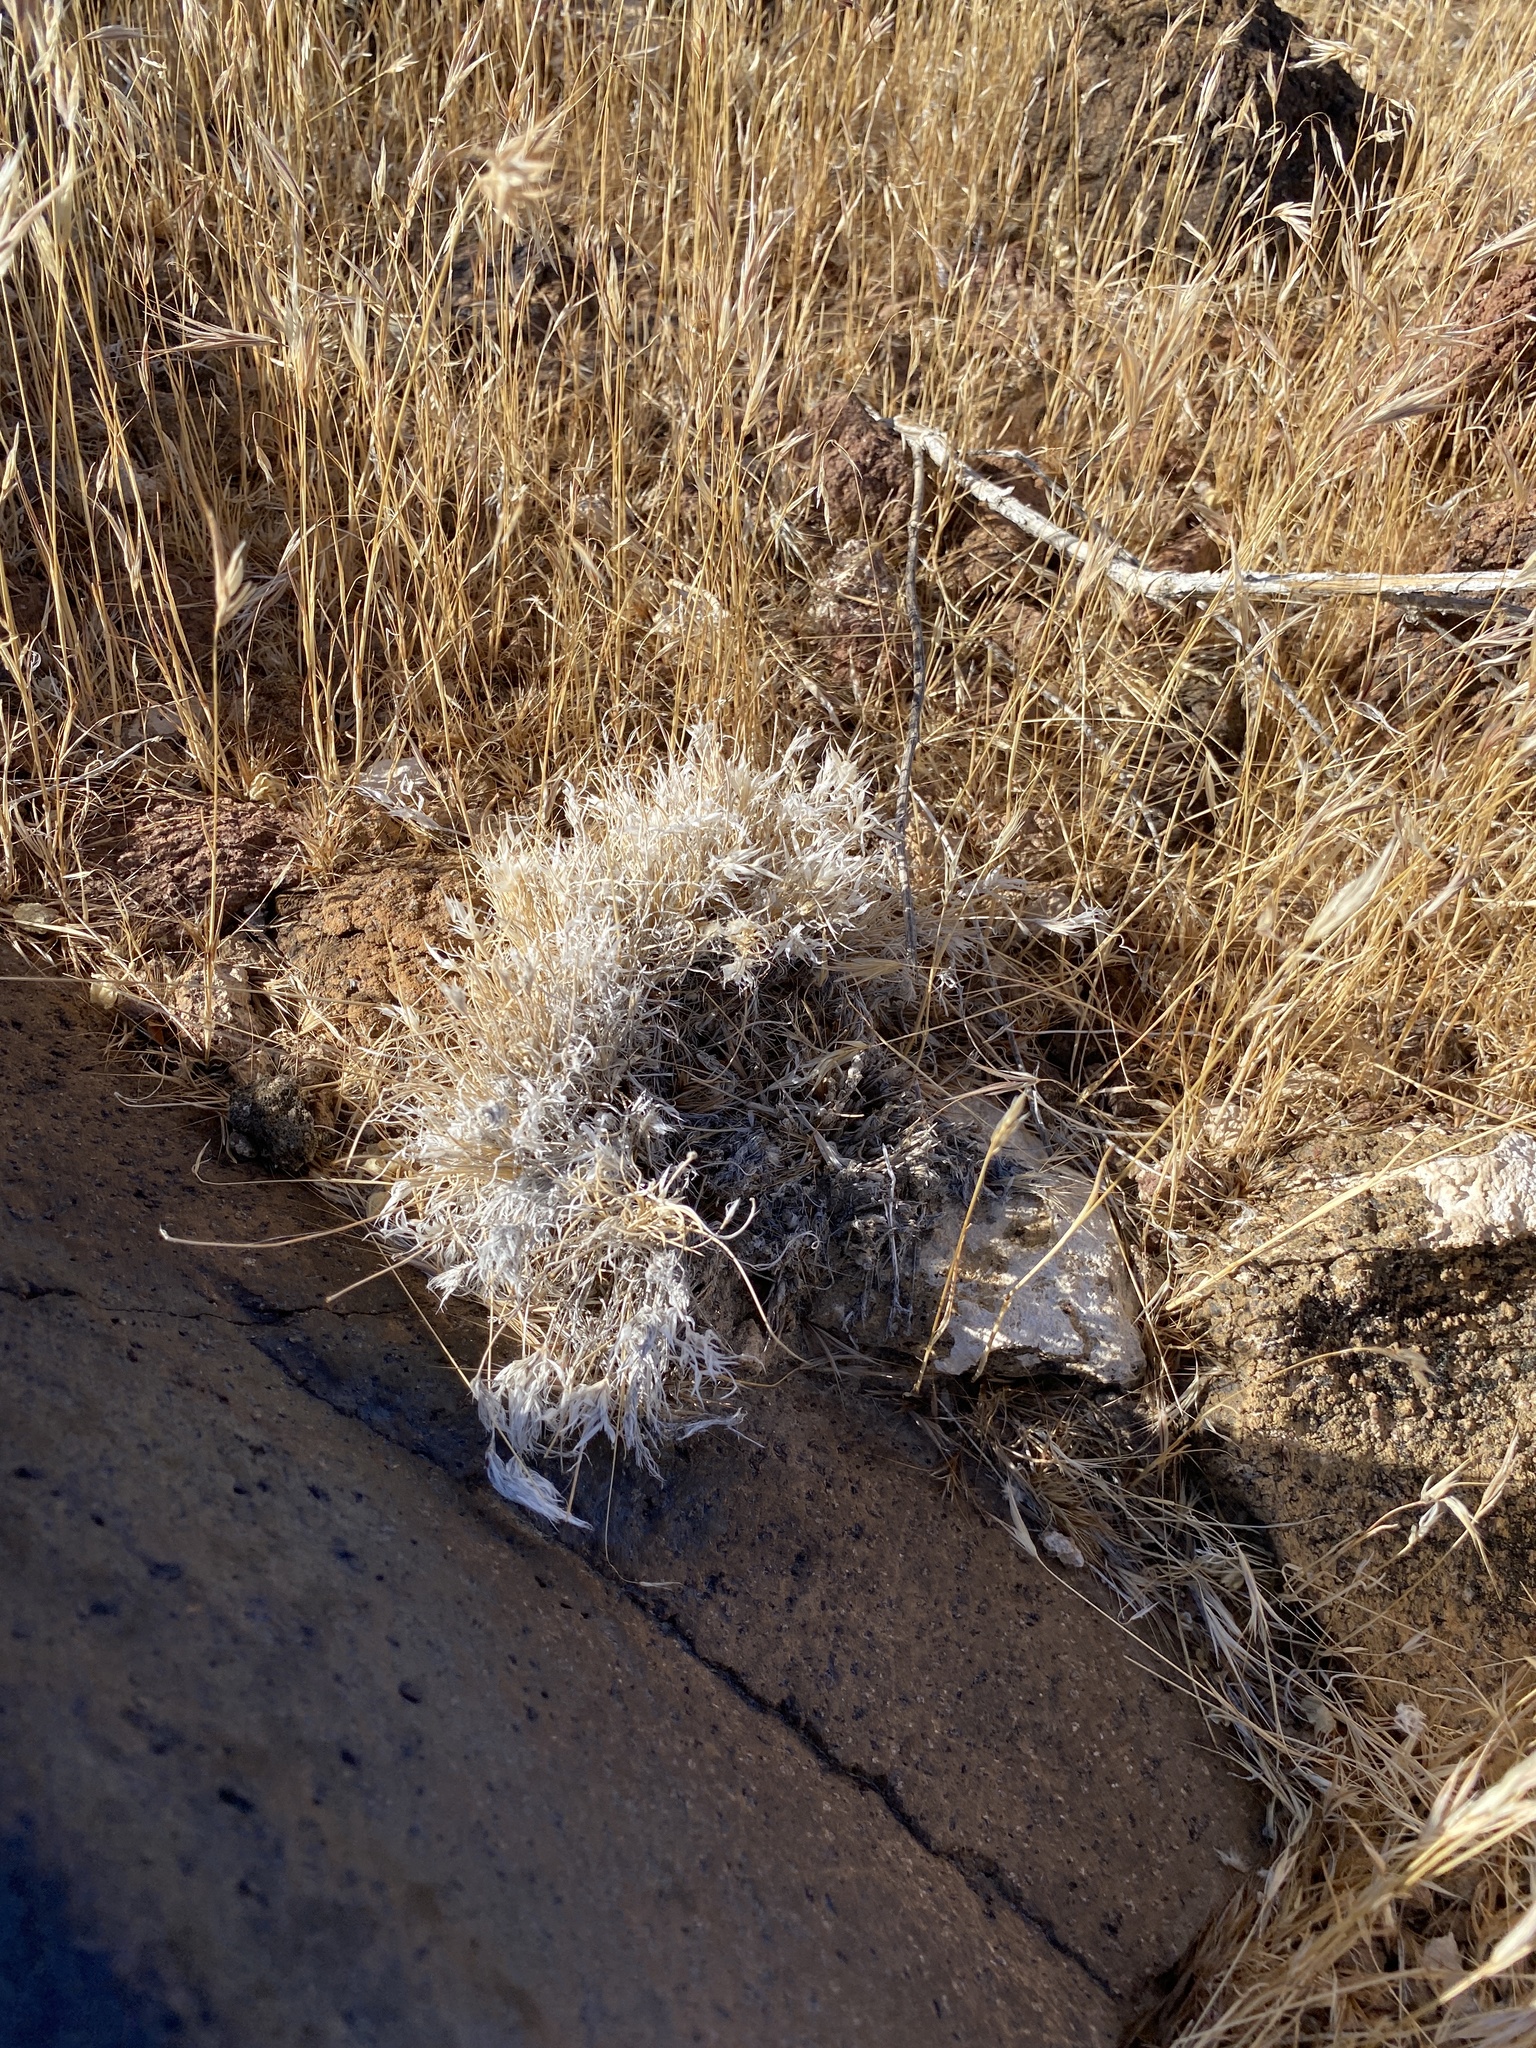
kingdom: Plantae
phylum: Tracheophyta
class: Liliopsida
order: Poales
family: Poaceae
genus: Dasyochloa
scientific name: Dasyochloa pulchella
